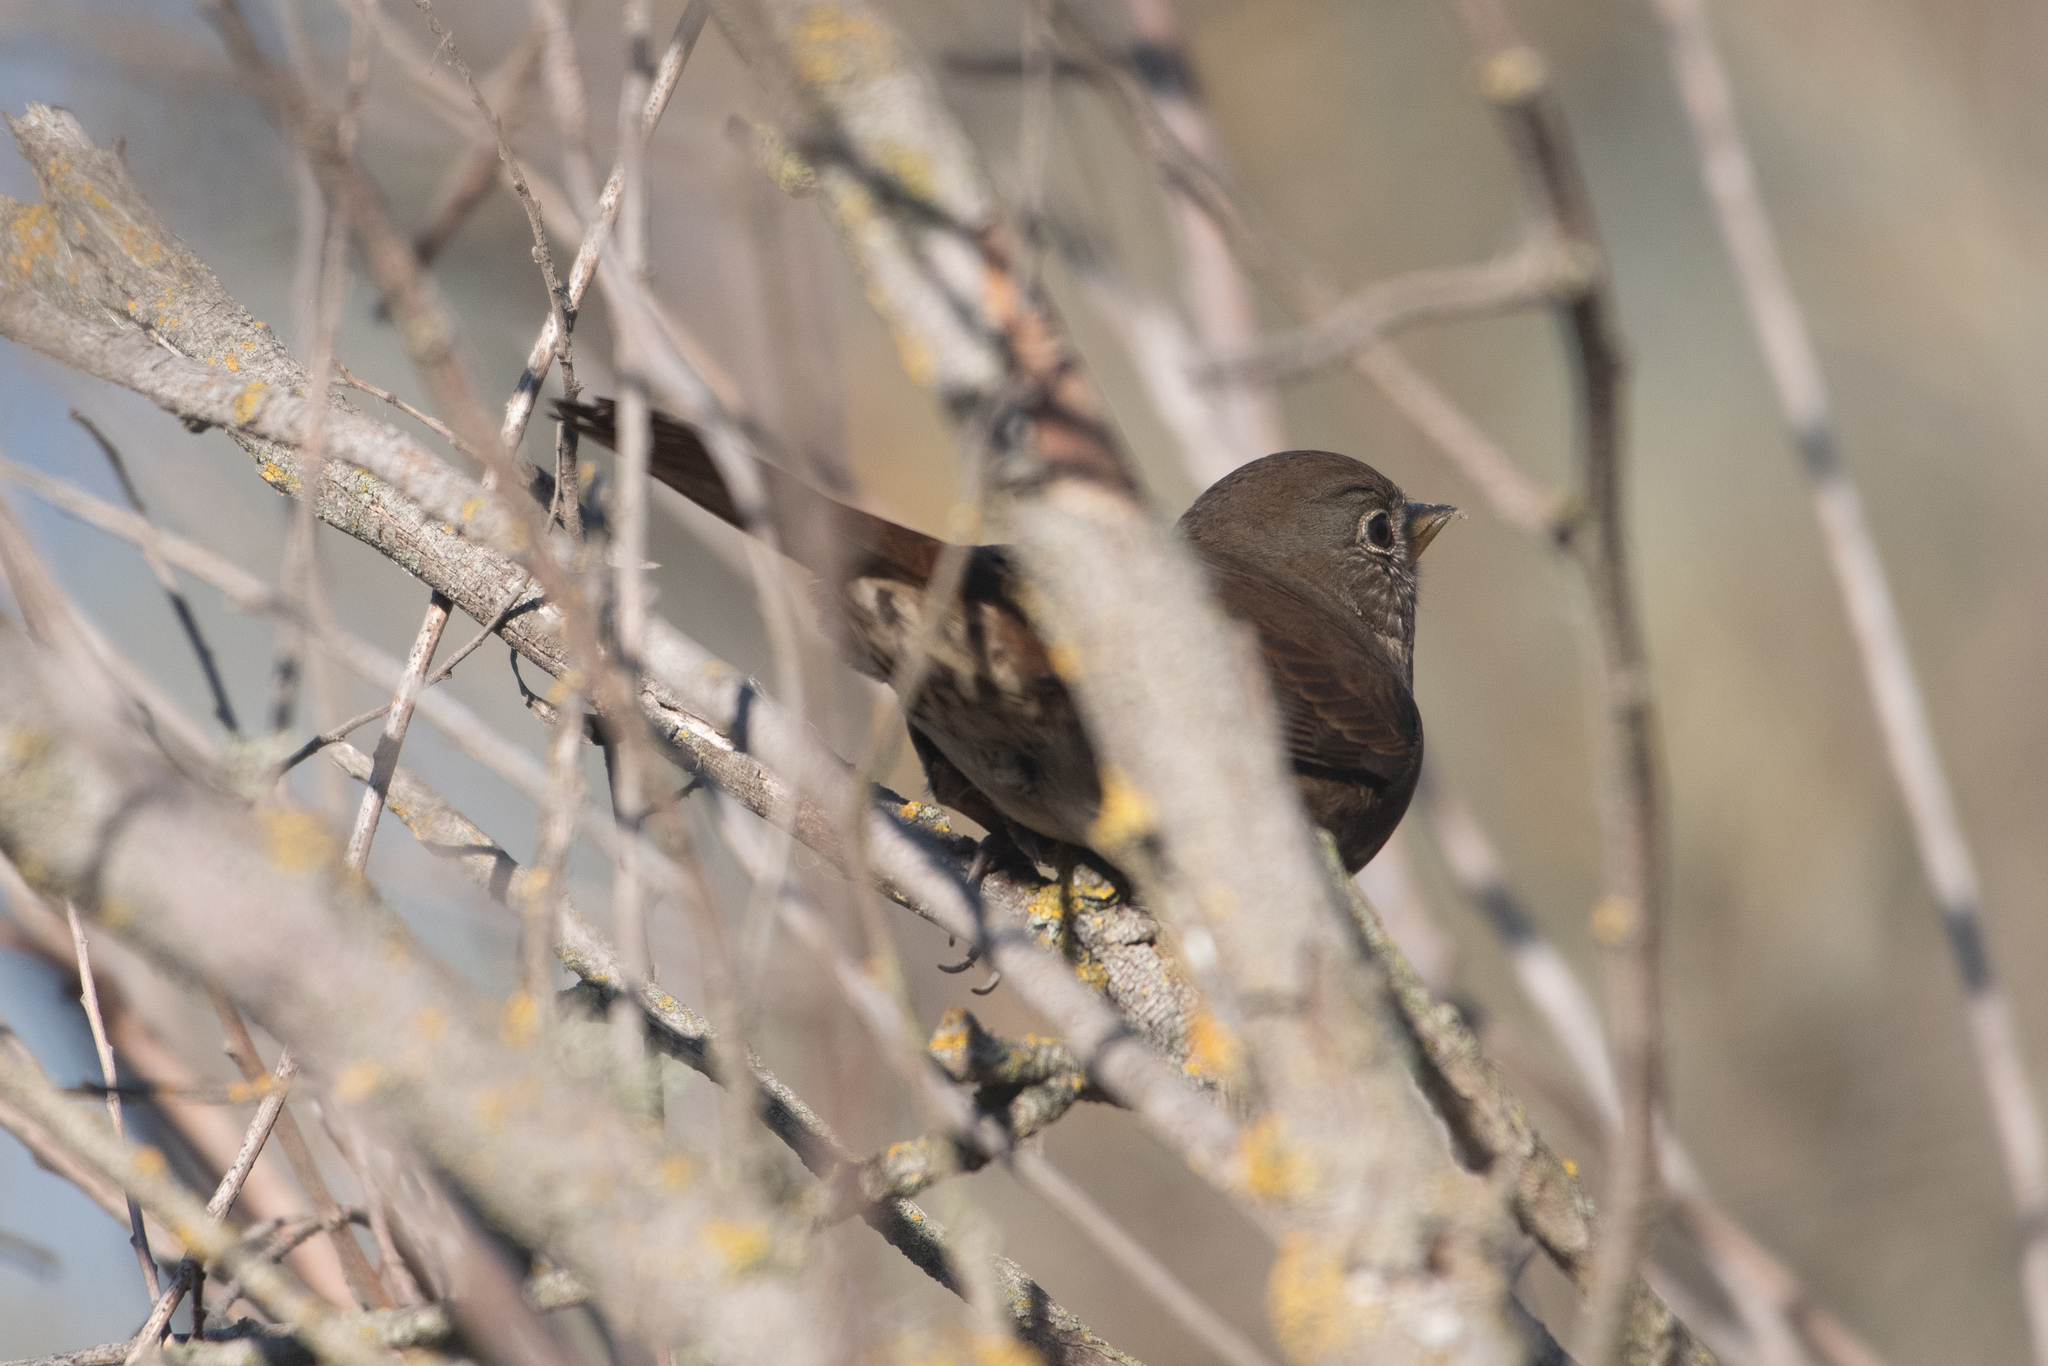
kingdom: Animalia
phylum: Chordata
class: Aves
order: Passeriformes
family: Passerellidae
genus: Passerella
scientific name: Passerella iliaca
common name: Fox sparrow
